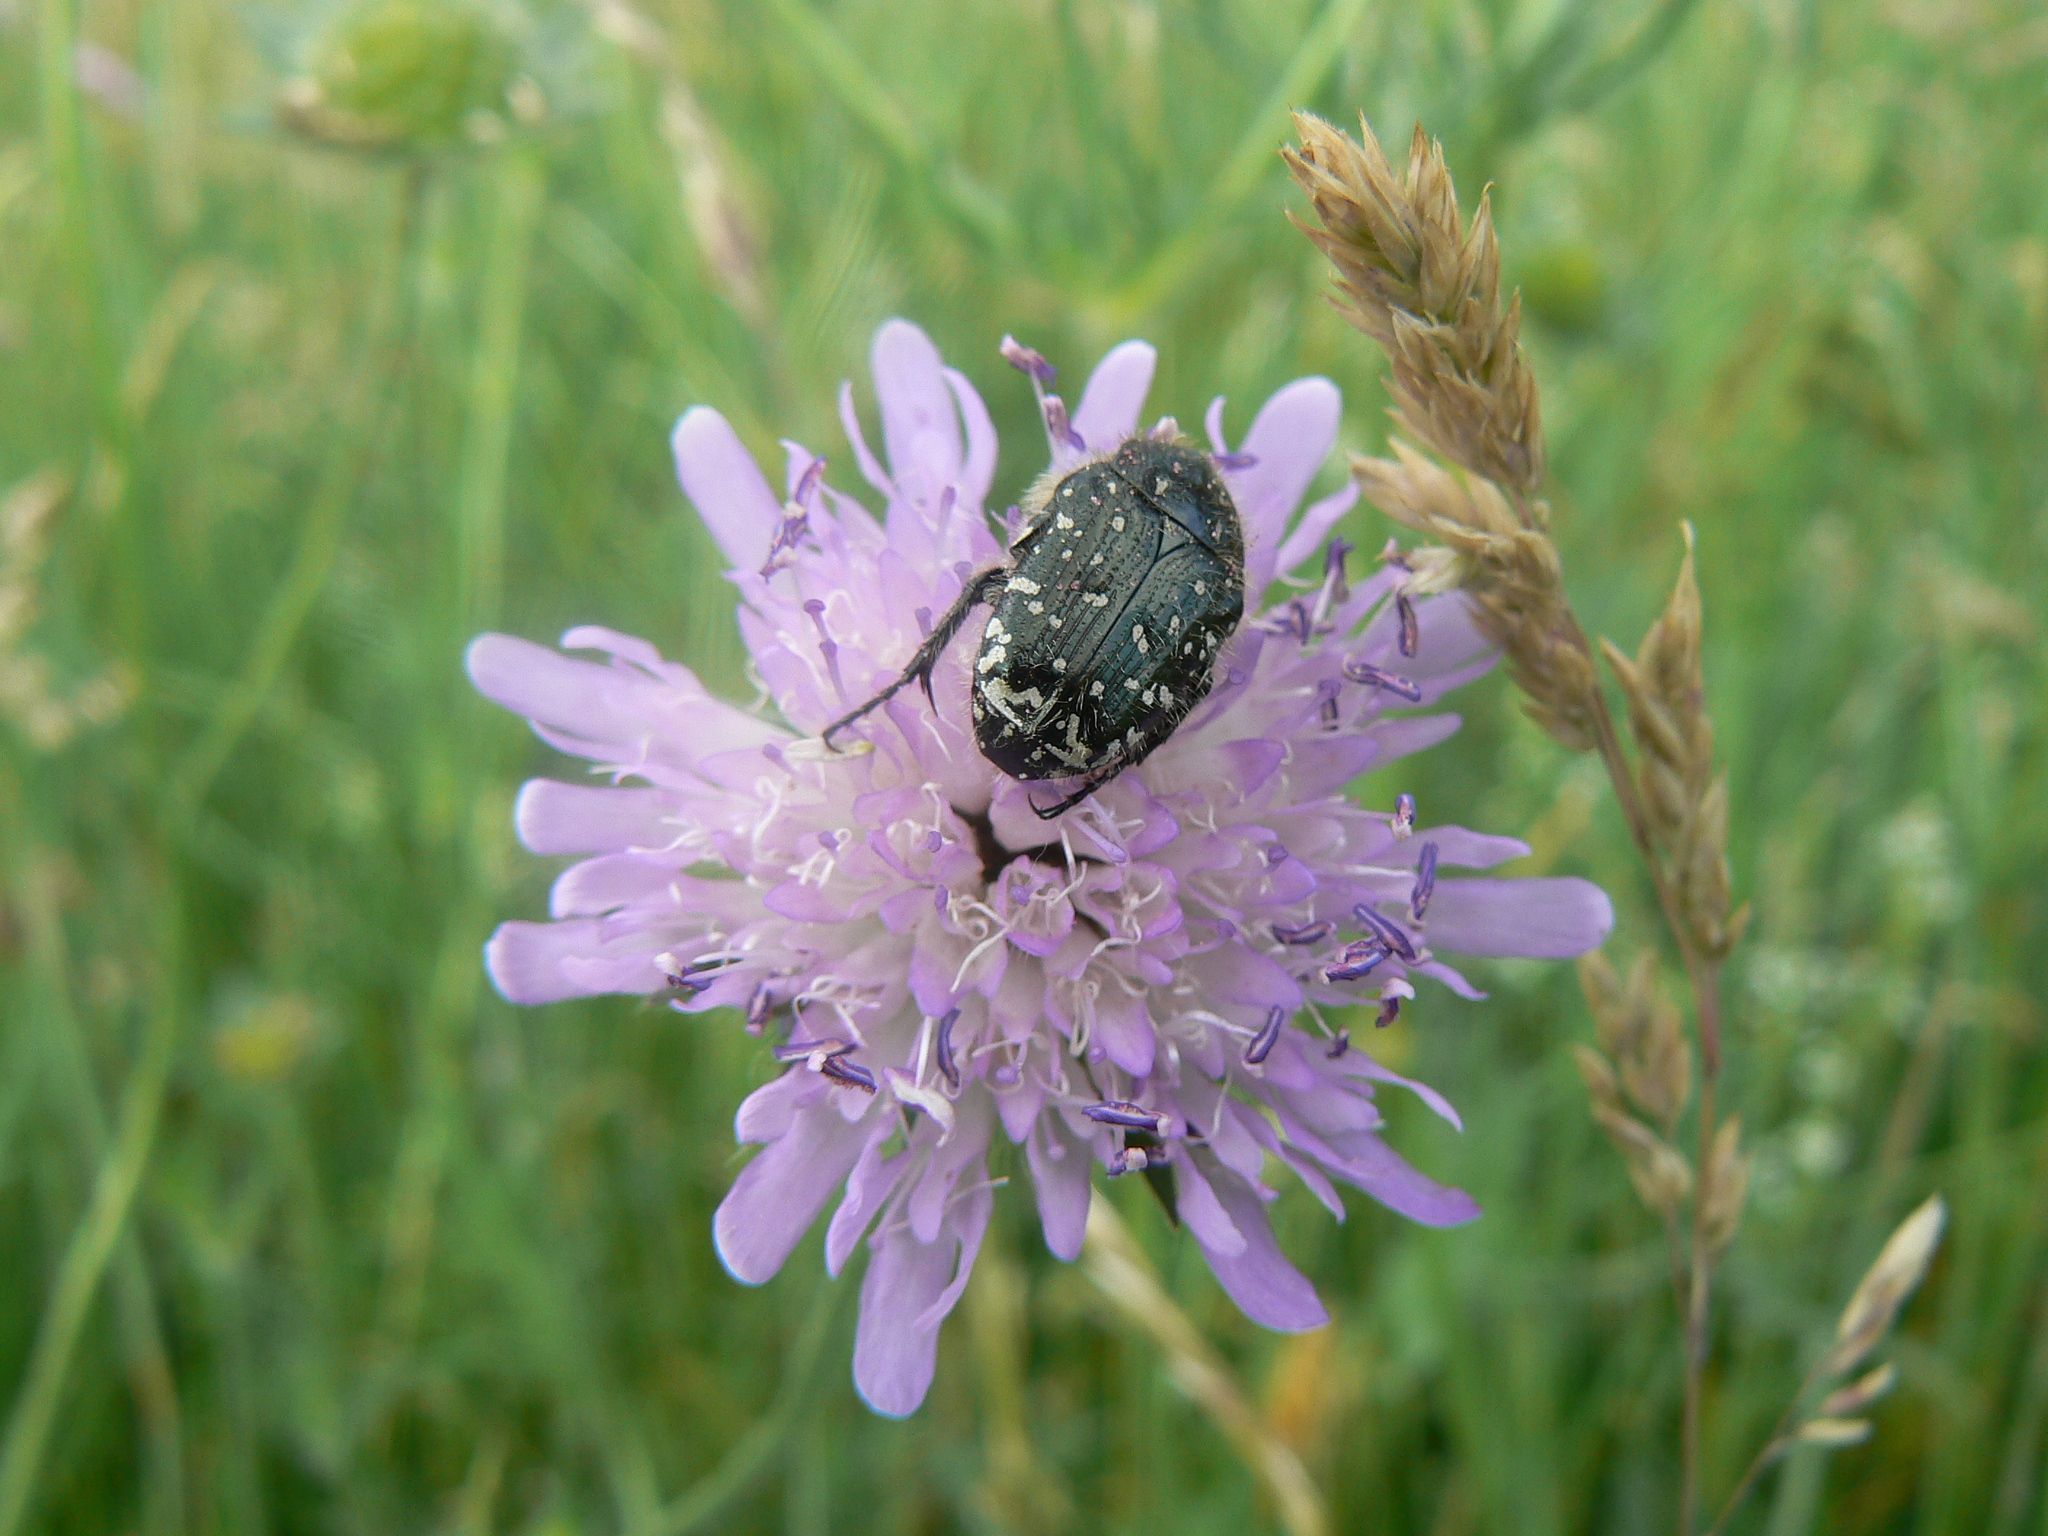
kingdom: Animalia
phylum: Arthropoda
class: Insecta
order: Coleoptera
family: Scarabaeidae
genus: Oxythyrea
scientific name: Oxythyrea funesta
